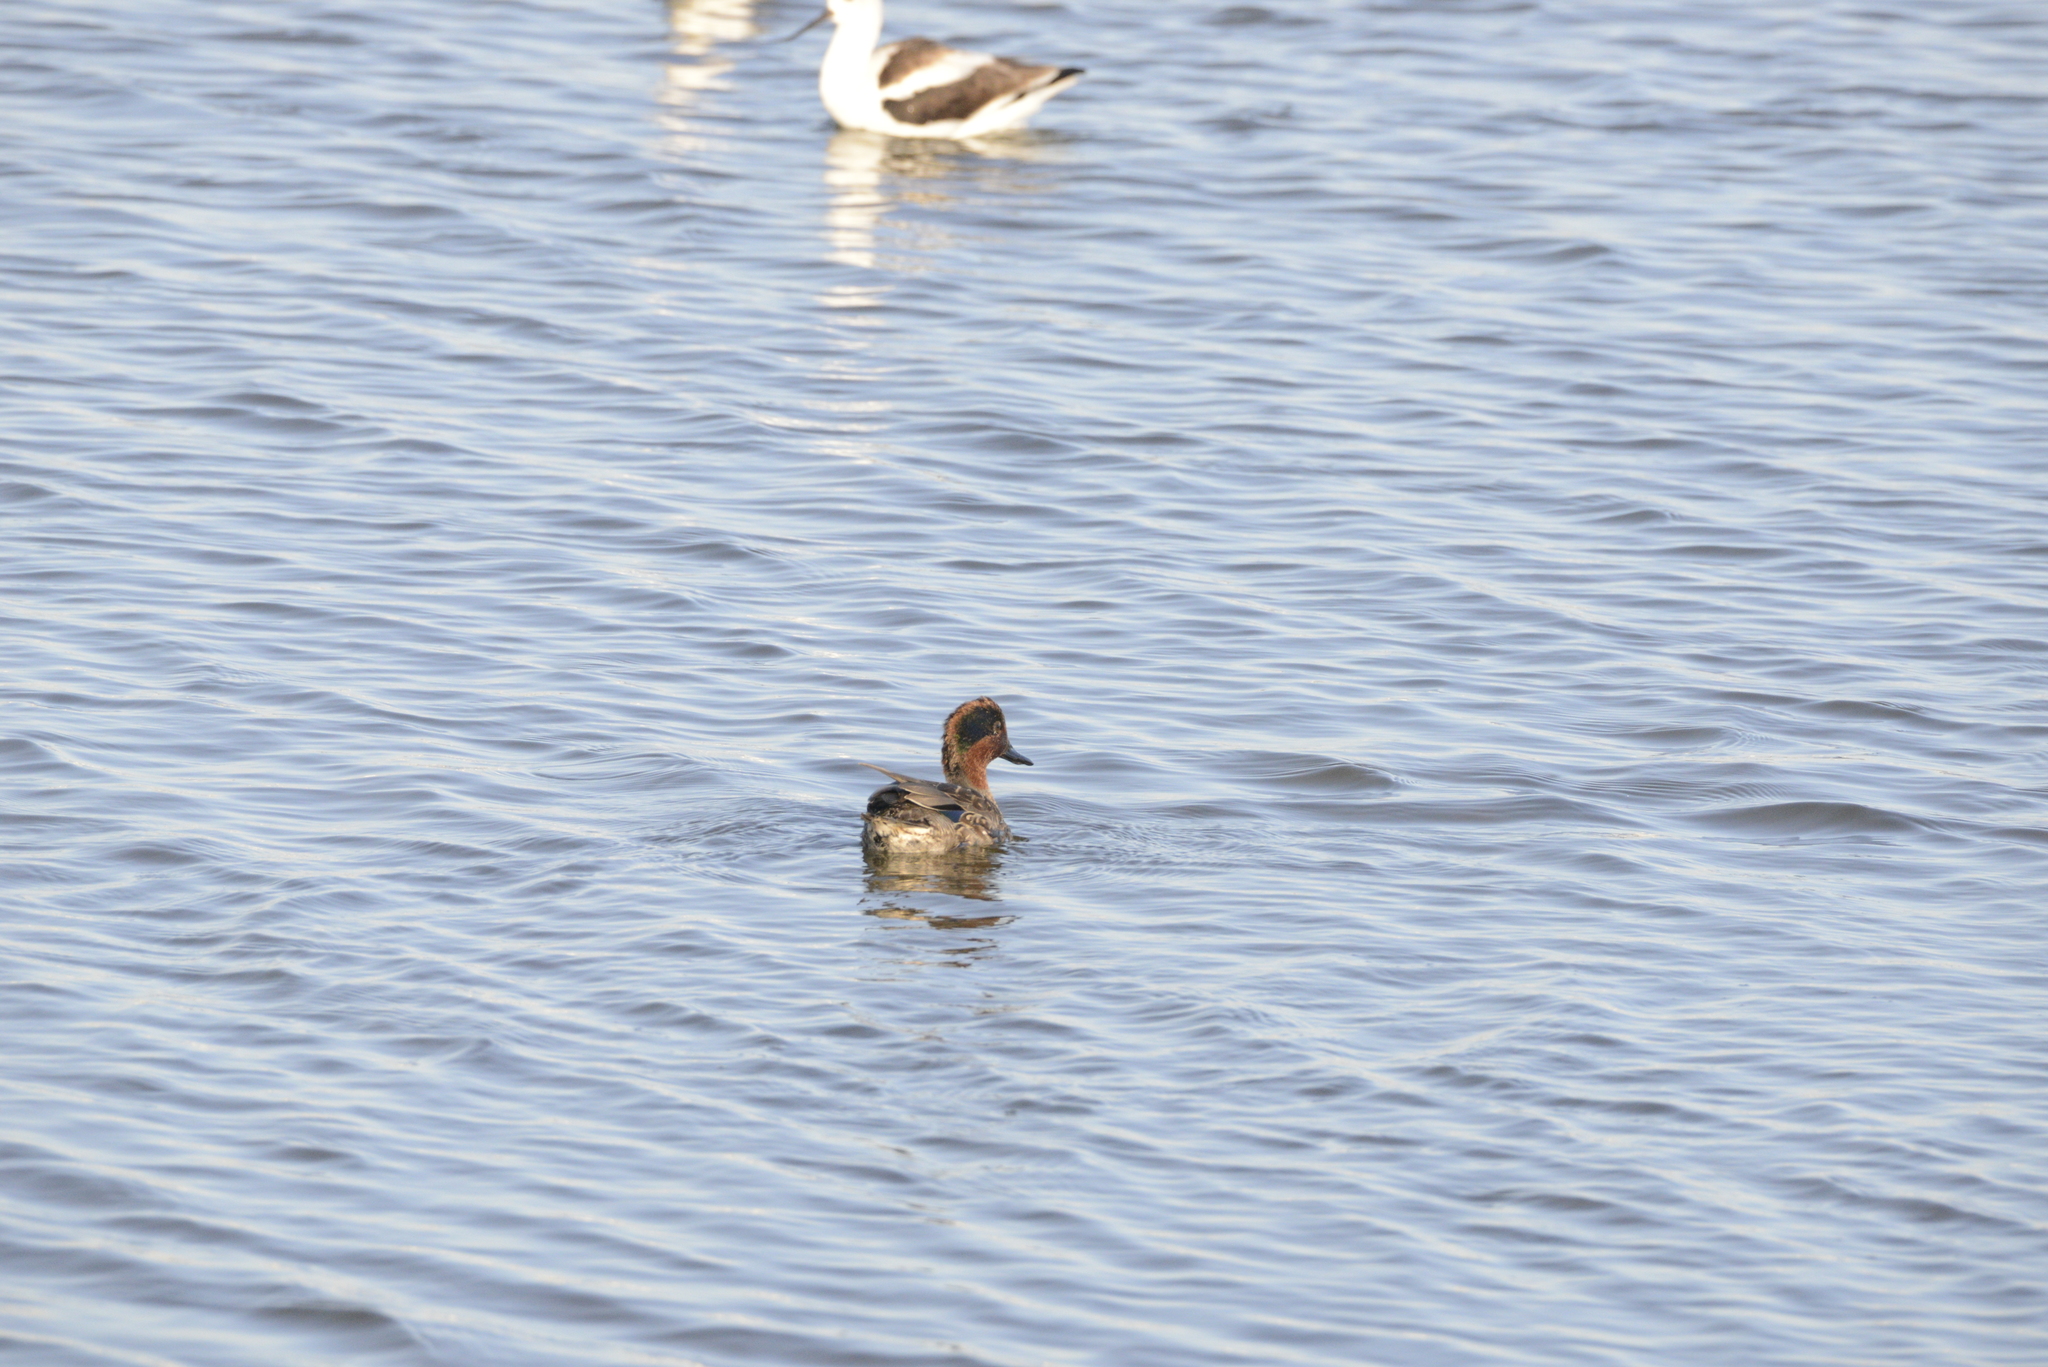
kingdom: Animalia
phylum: Chordata
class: Aves
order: Anseriformes
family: Anatidae
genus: Anas
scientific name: Anas crecca
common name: Eurasian teal
